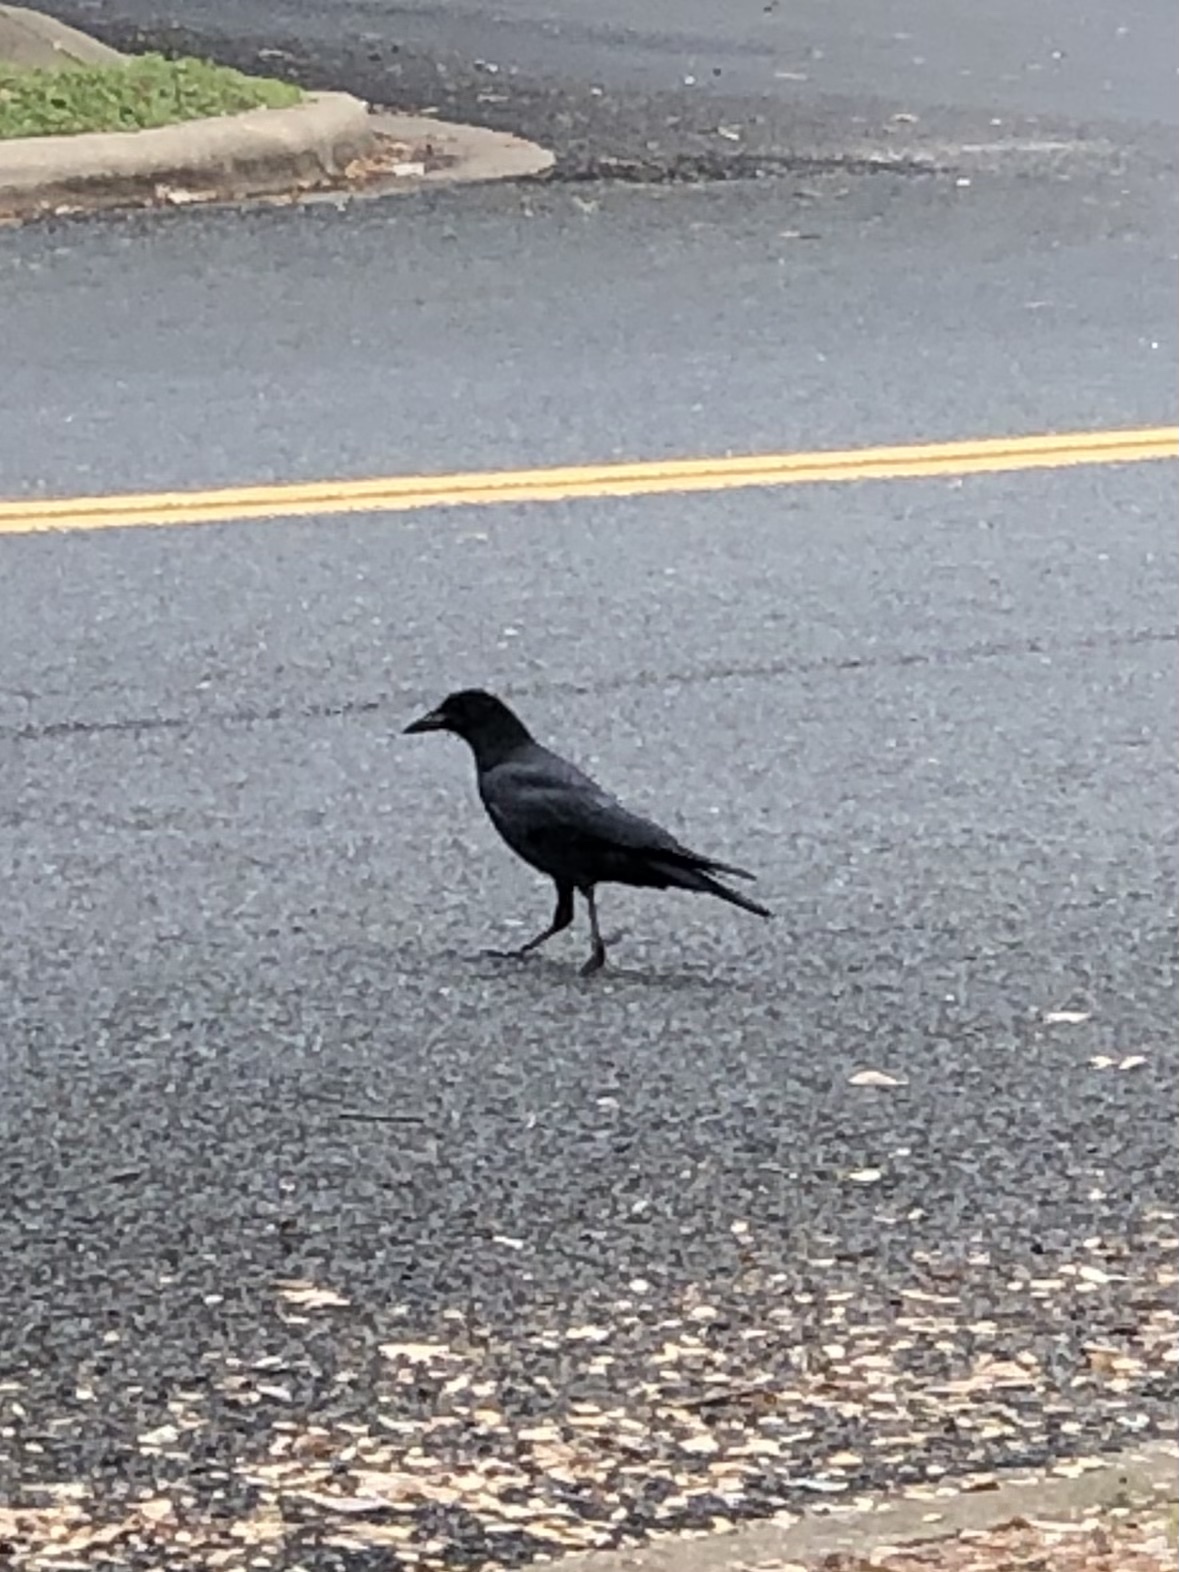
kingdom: Animalia
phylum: Chordata
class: Aves
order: Passeriformes
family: Corvidae
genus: Corvus
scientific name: Corvus brachyrhynchos
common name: American crow
